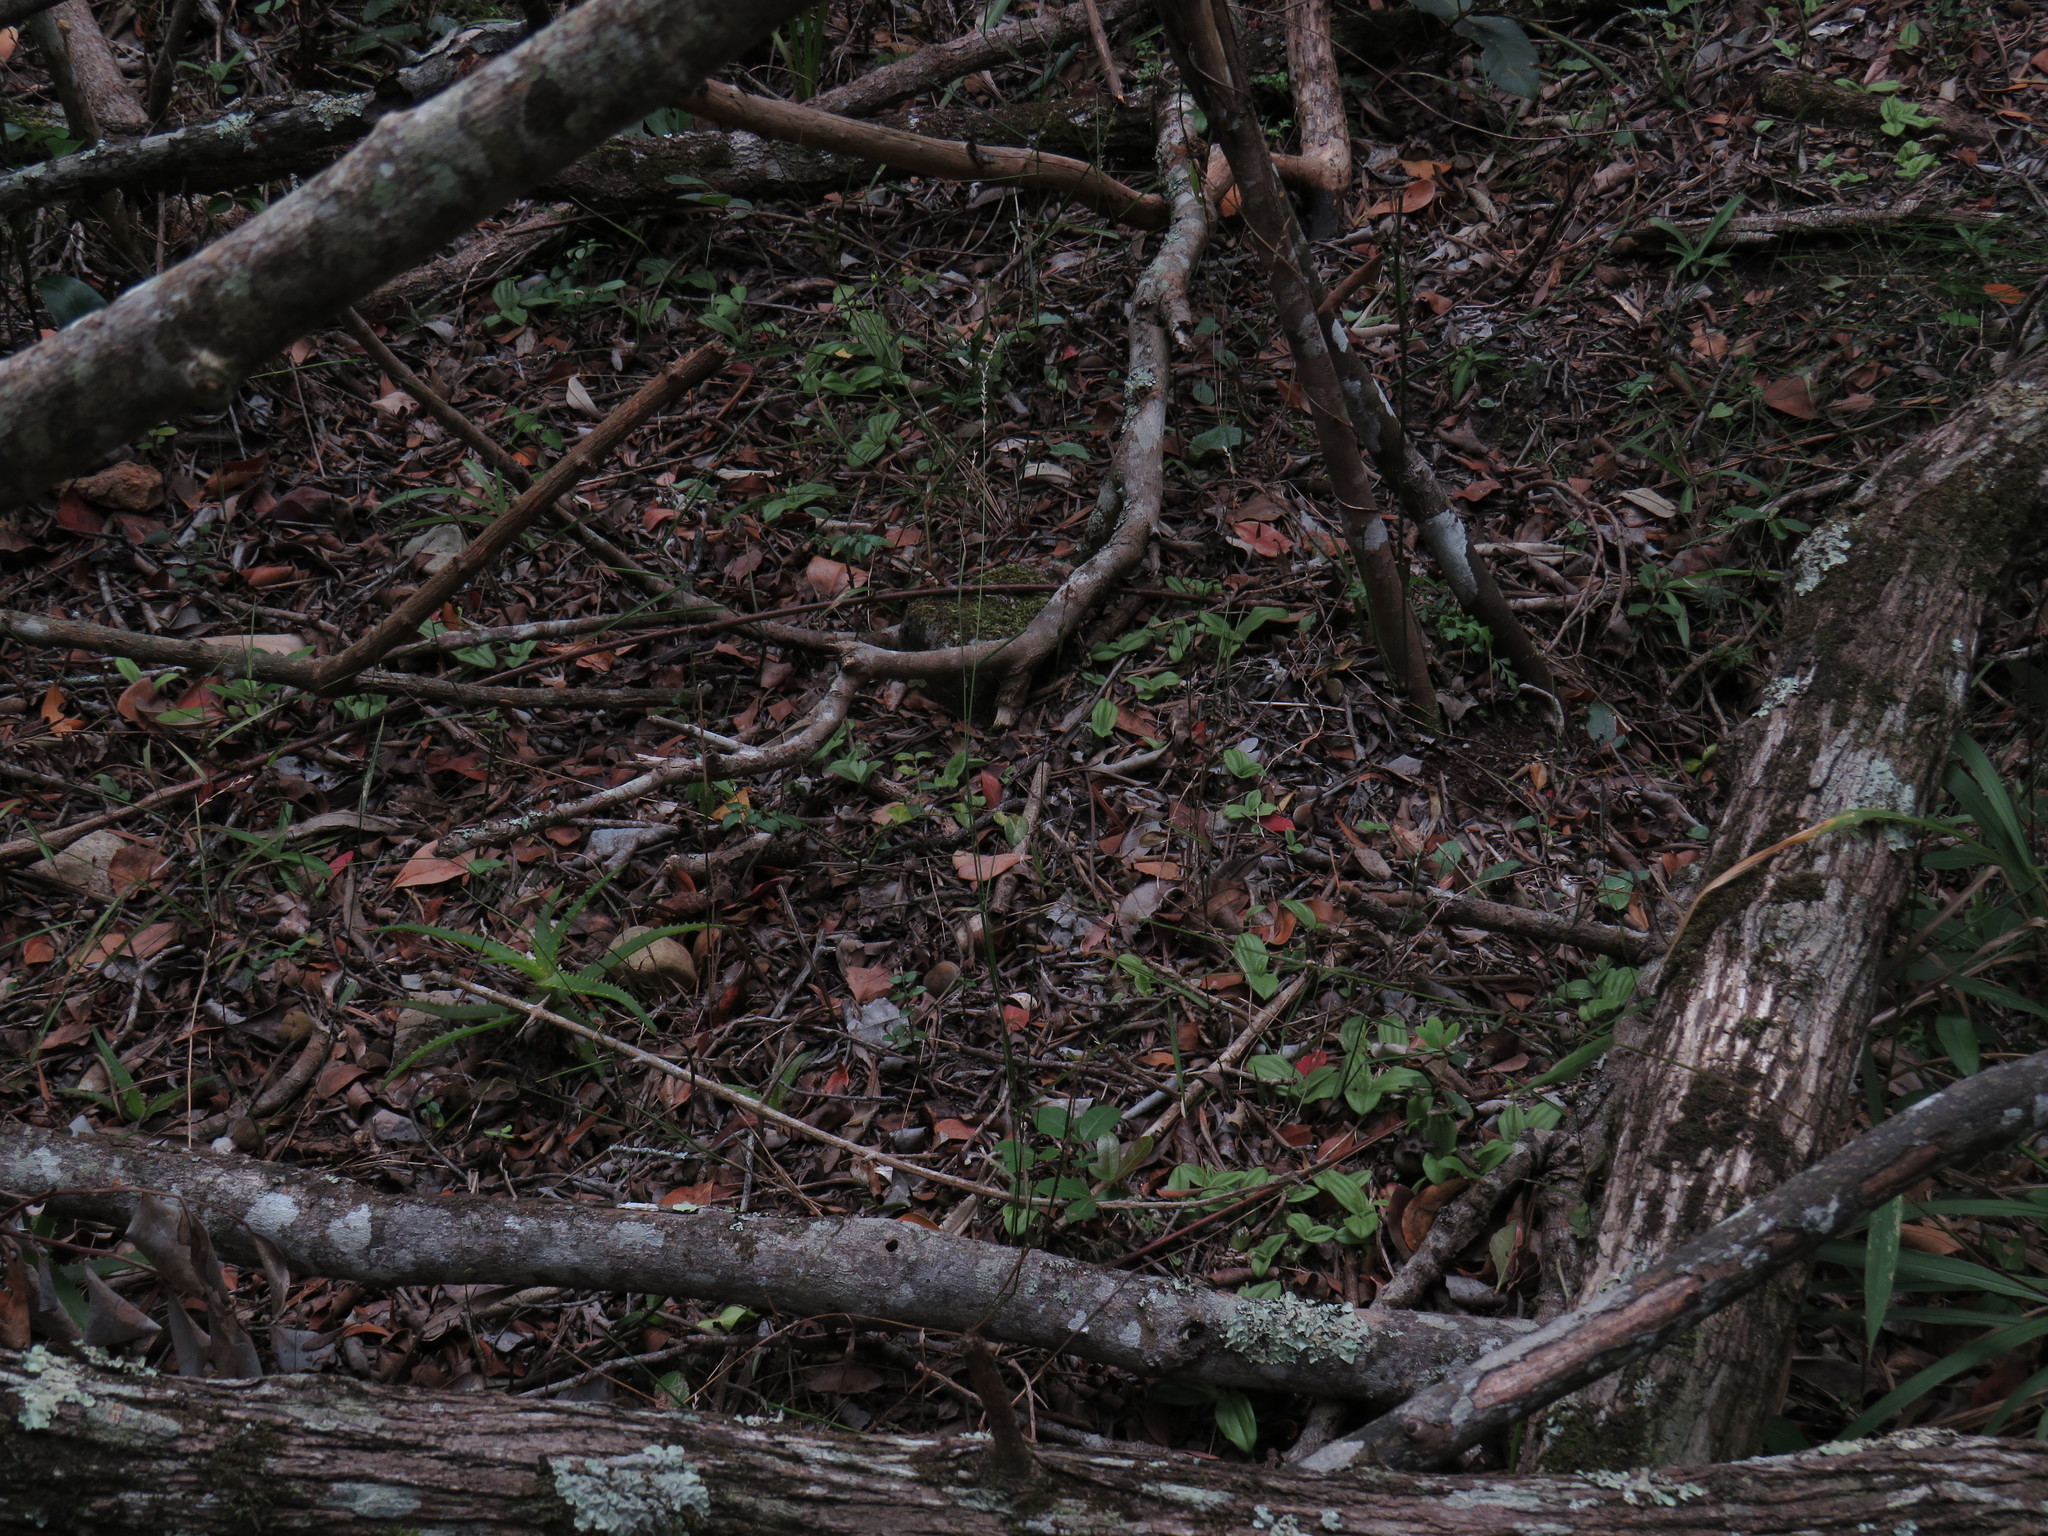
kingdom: Plantae
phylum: Tracheophyta
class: Liliopsida
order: Asparagales
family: Orchidaceae
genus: Liparis
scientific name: Liparis remota
